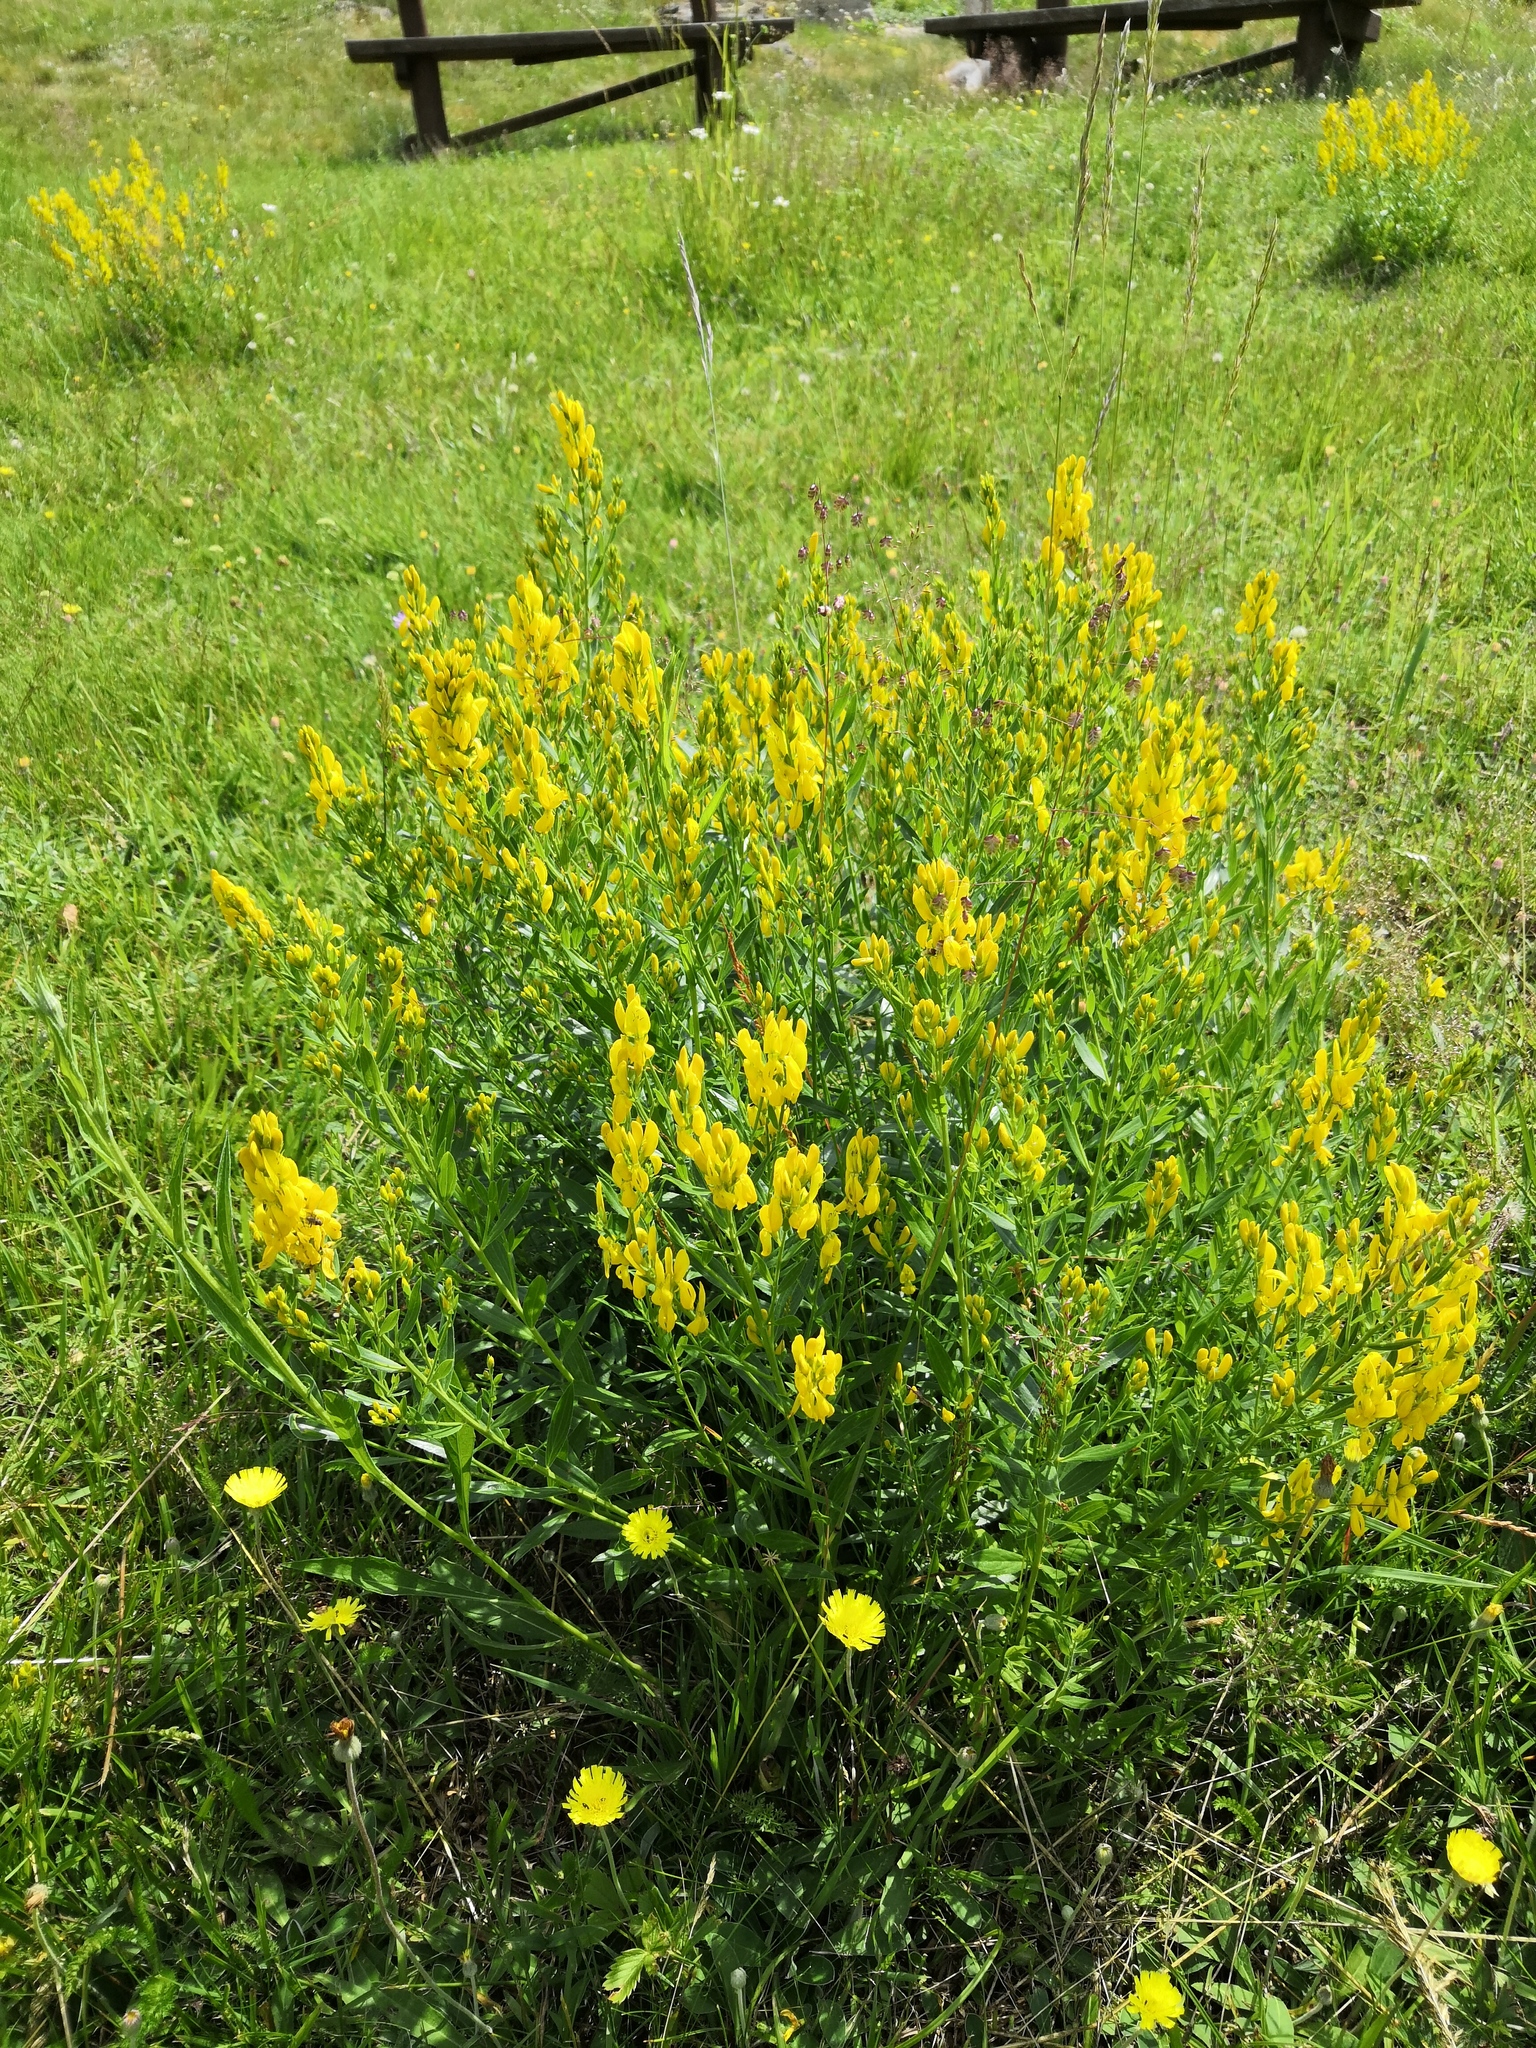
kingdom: Plantae
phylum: Tracheophyta
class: Magnoliopsida
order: Fabales
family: Fabaceae
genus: Genista
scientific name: Genista tinctoria
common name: Dyer's greenweed
